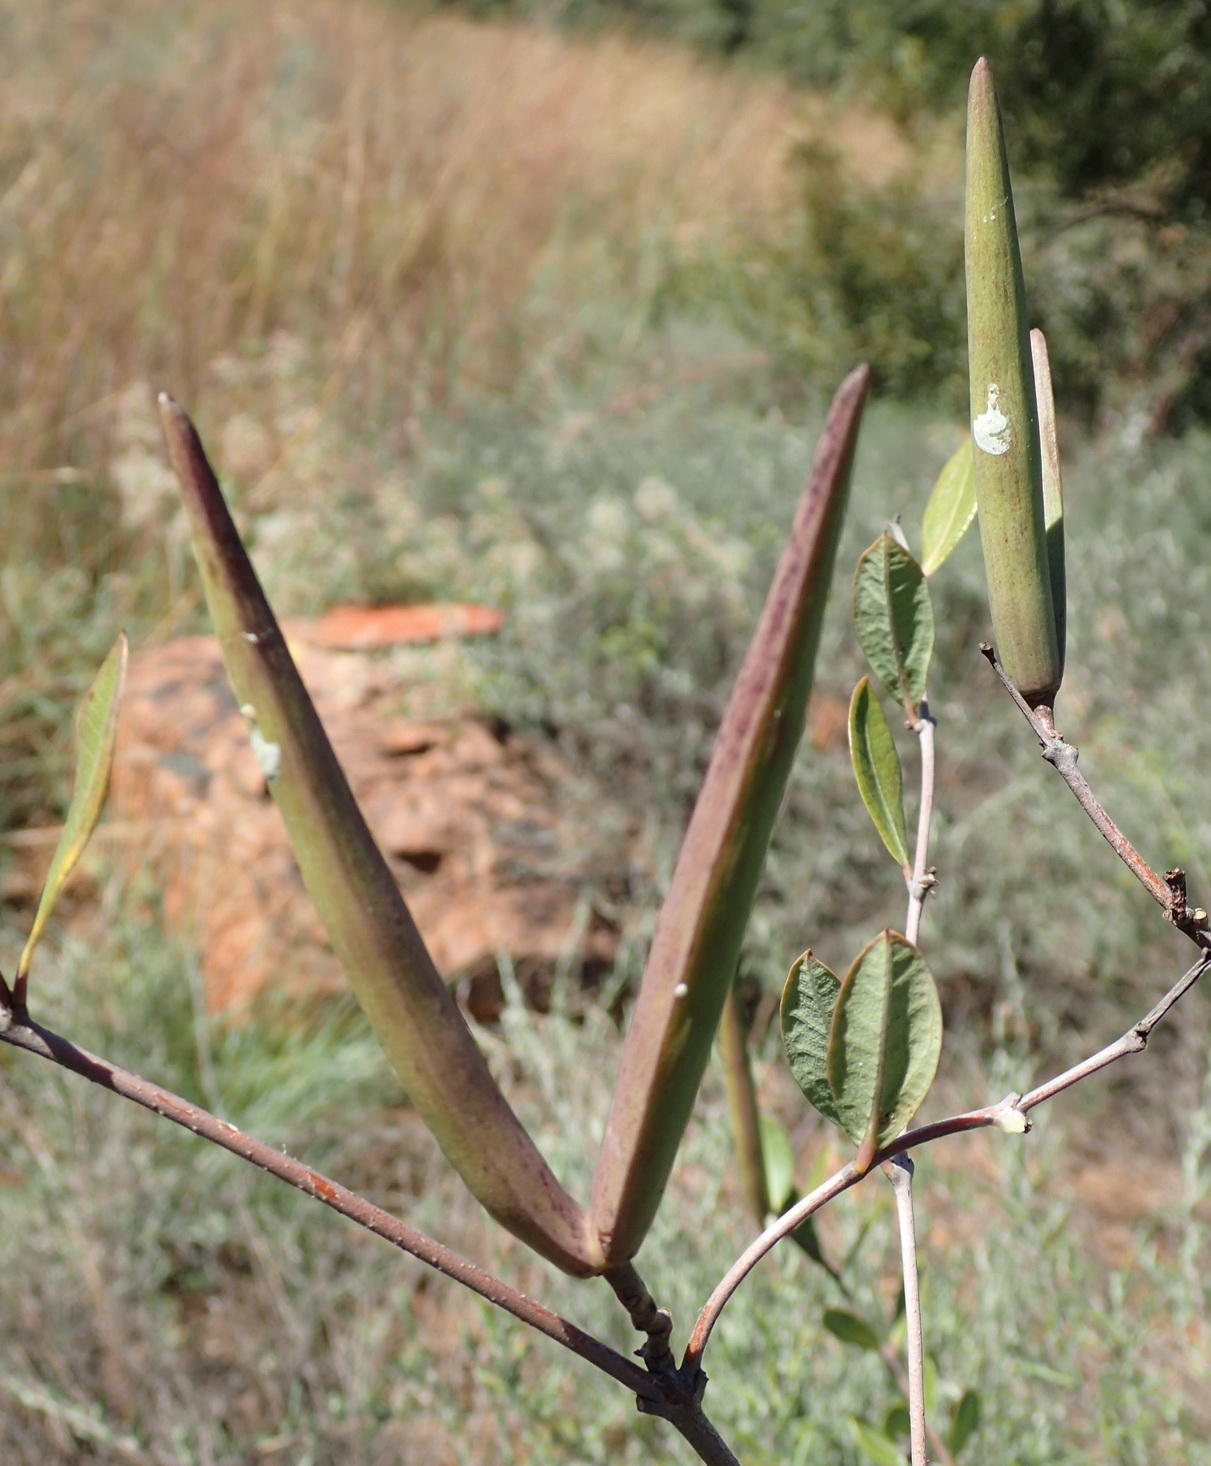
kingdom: Plantae
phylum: Tracheophyta
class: Magnoliopsida
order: Gentianales
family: Apocynaceae
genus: Cryptolepis
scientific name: Cryptolepis oblongifolia
